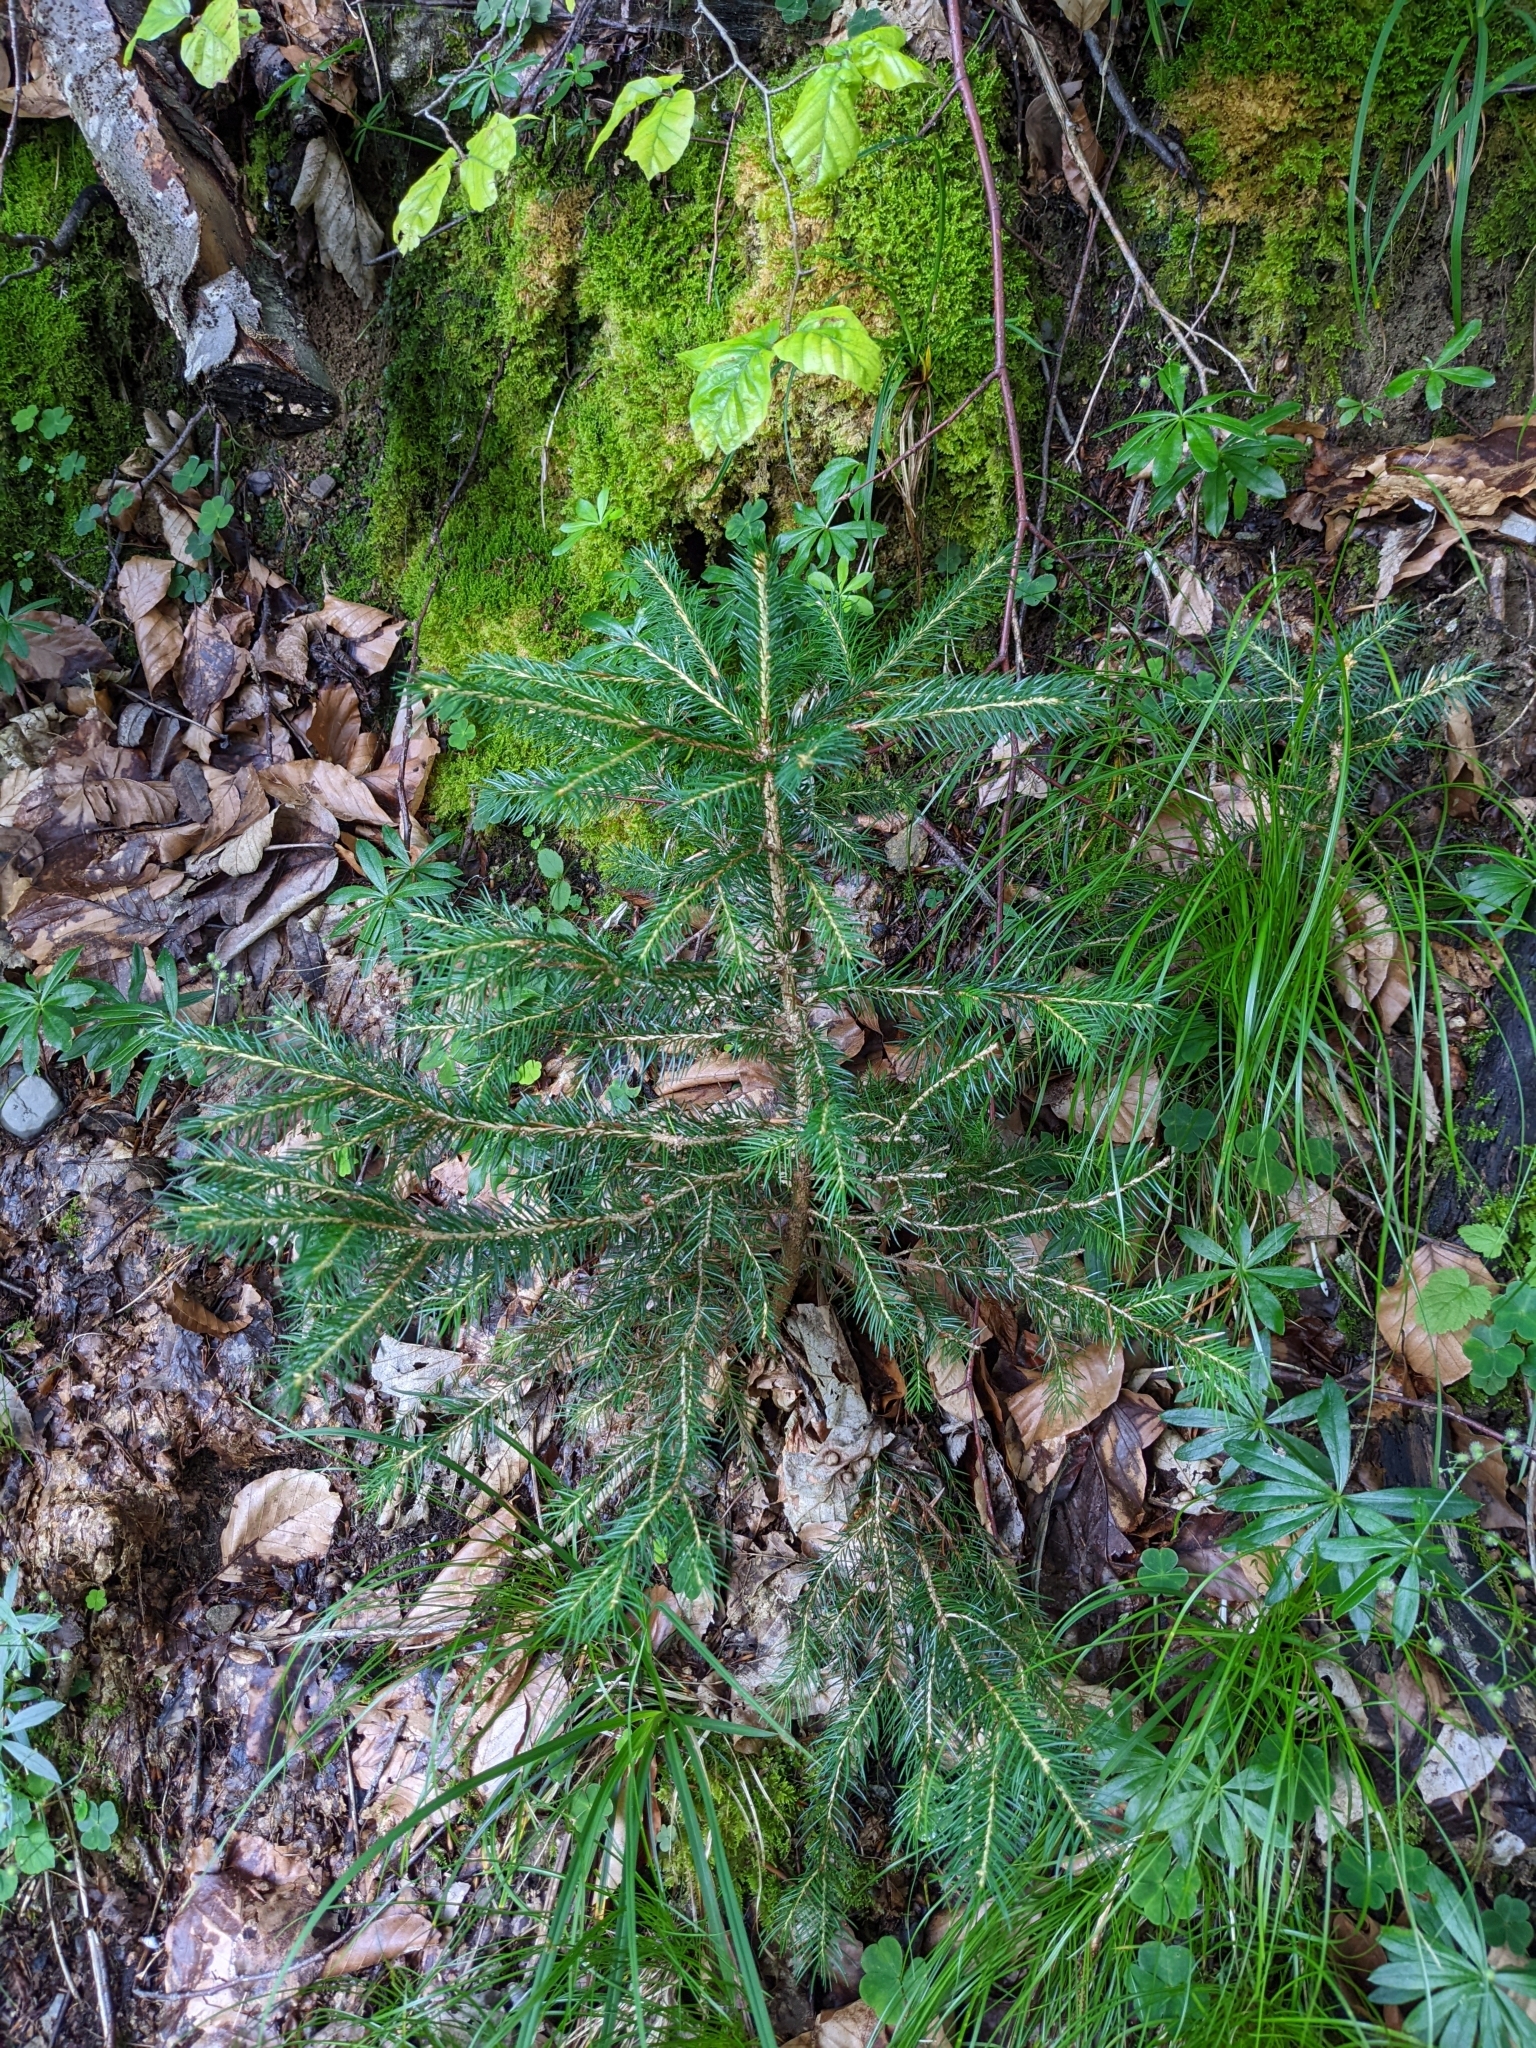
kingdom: Plantae
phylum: Tracheophyta
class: Pinopsida
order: Pinales
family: Pinaceae
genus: Picea
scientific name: Picea abies
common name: Norway spruce
